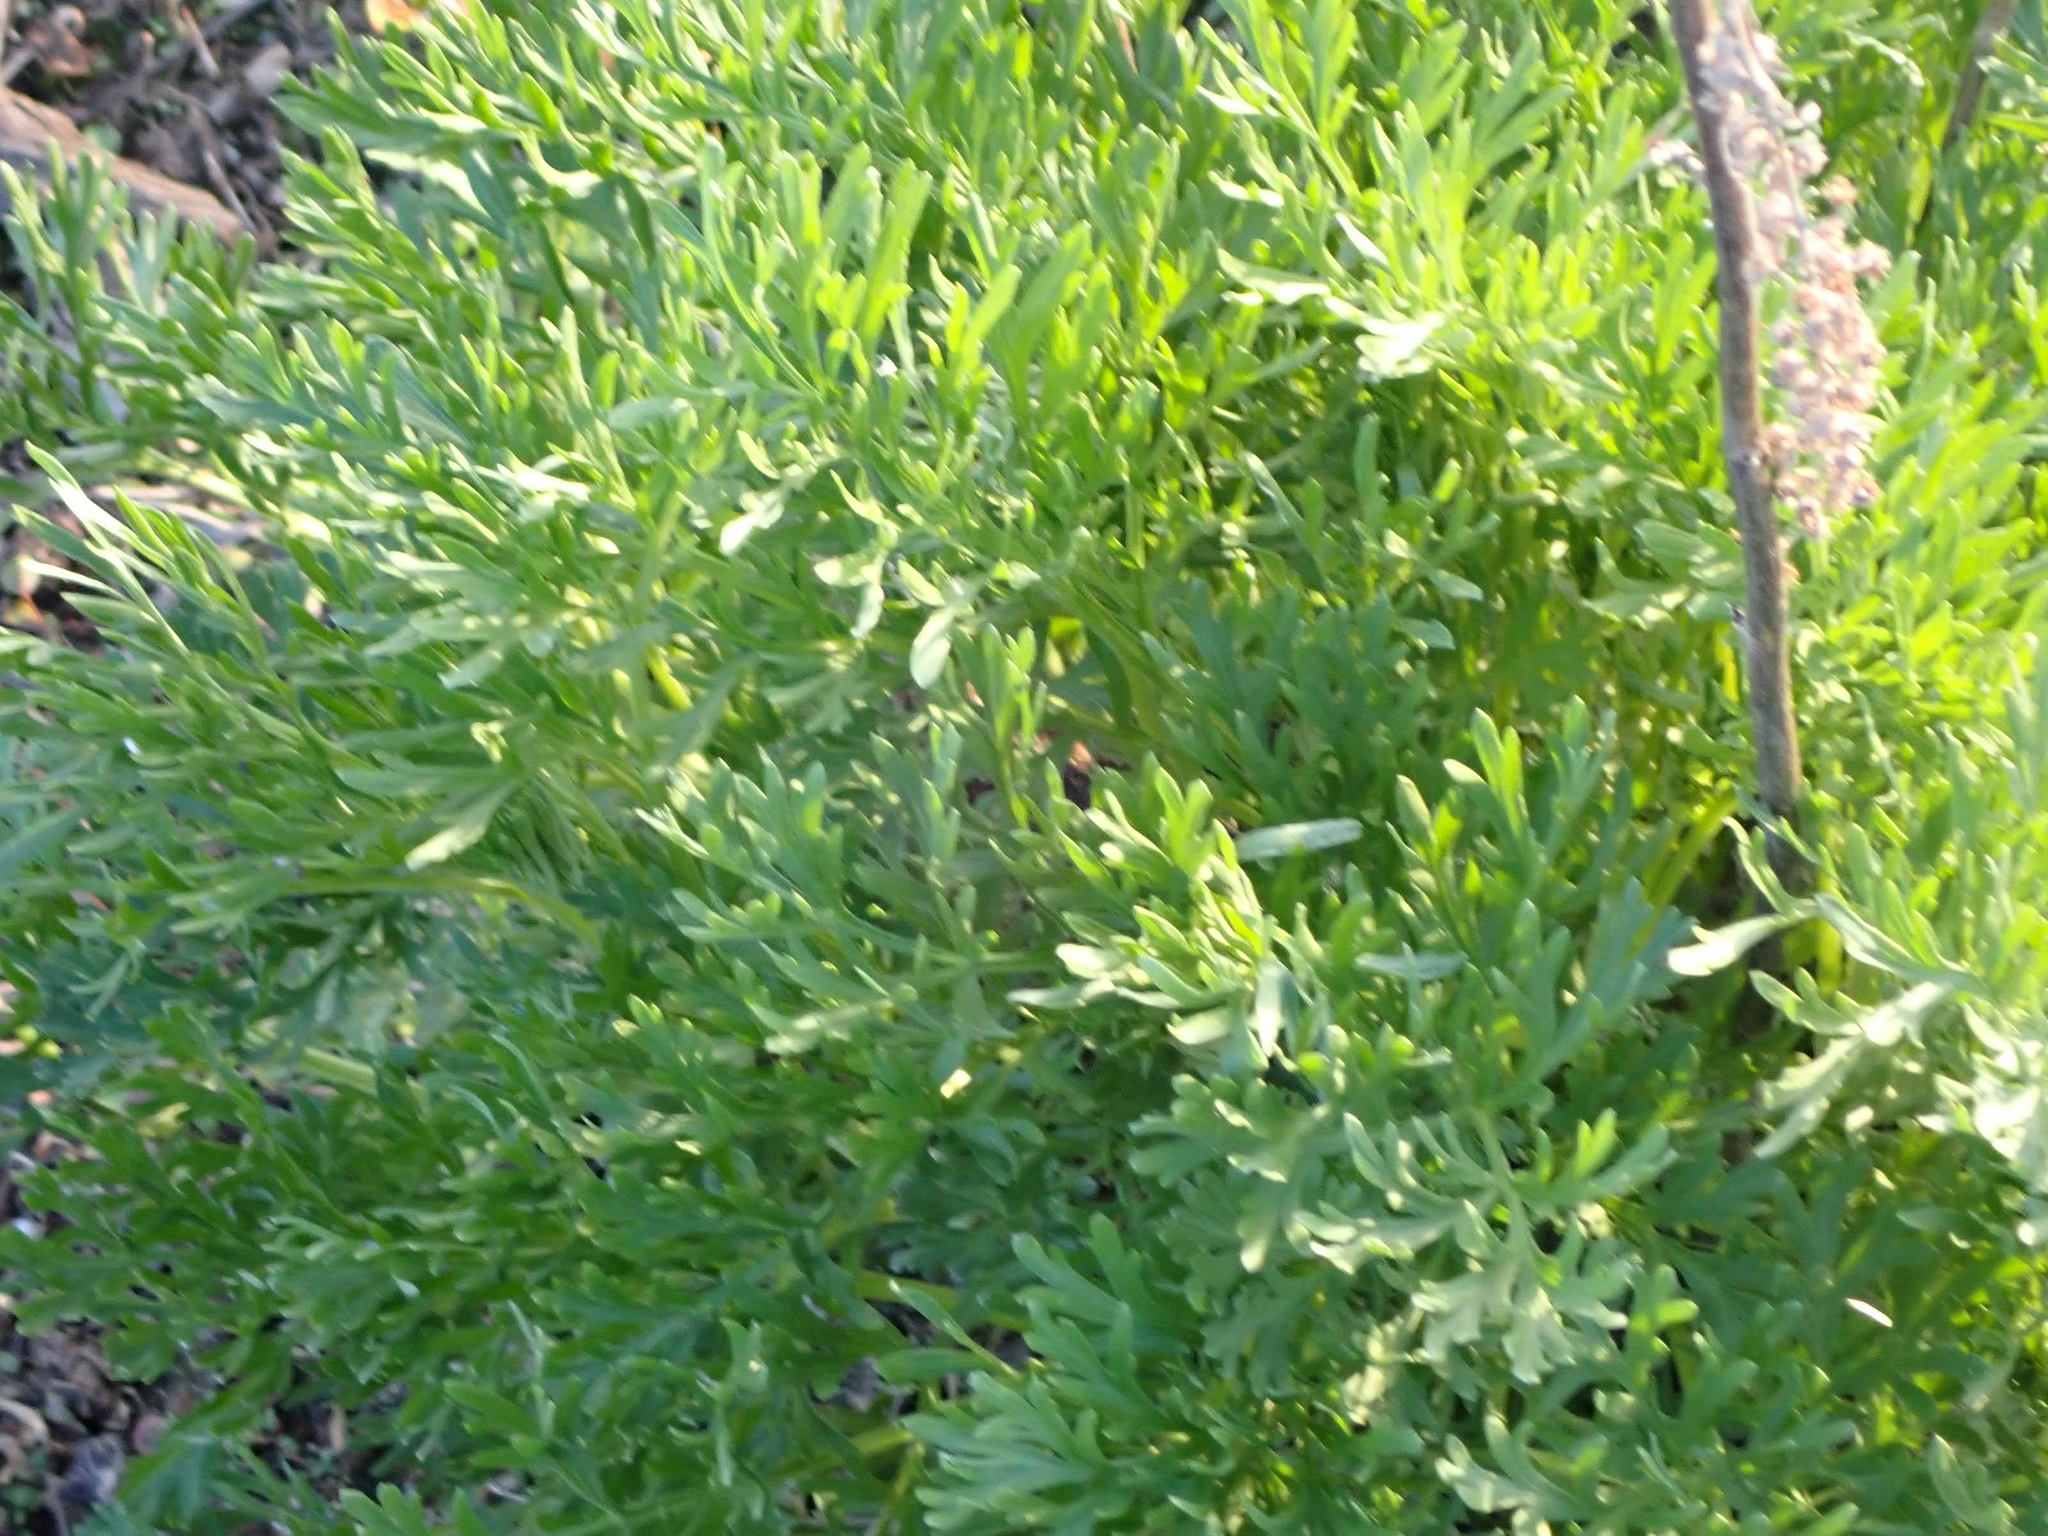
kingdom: Plantae
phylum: Tracheophyta
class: Magnoliopsida
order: Asterales
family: Asteraceae
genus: Artemisia
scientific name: Artemisia absinthium
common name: Wormwood
